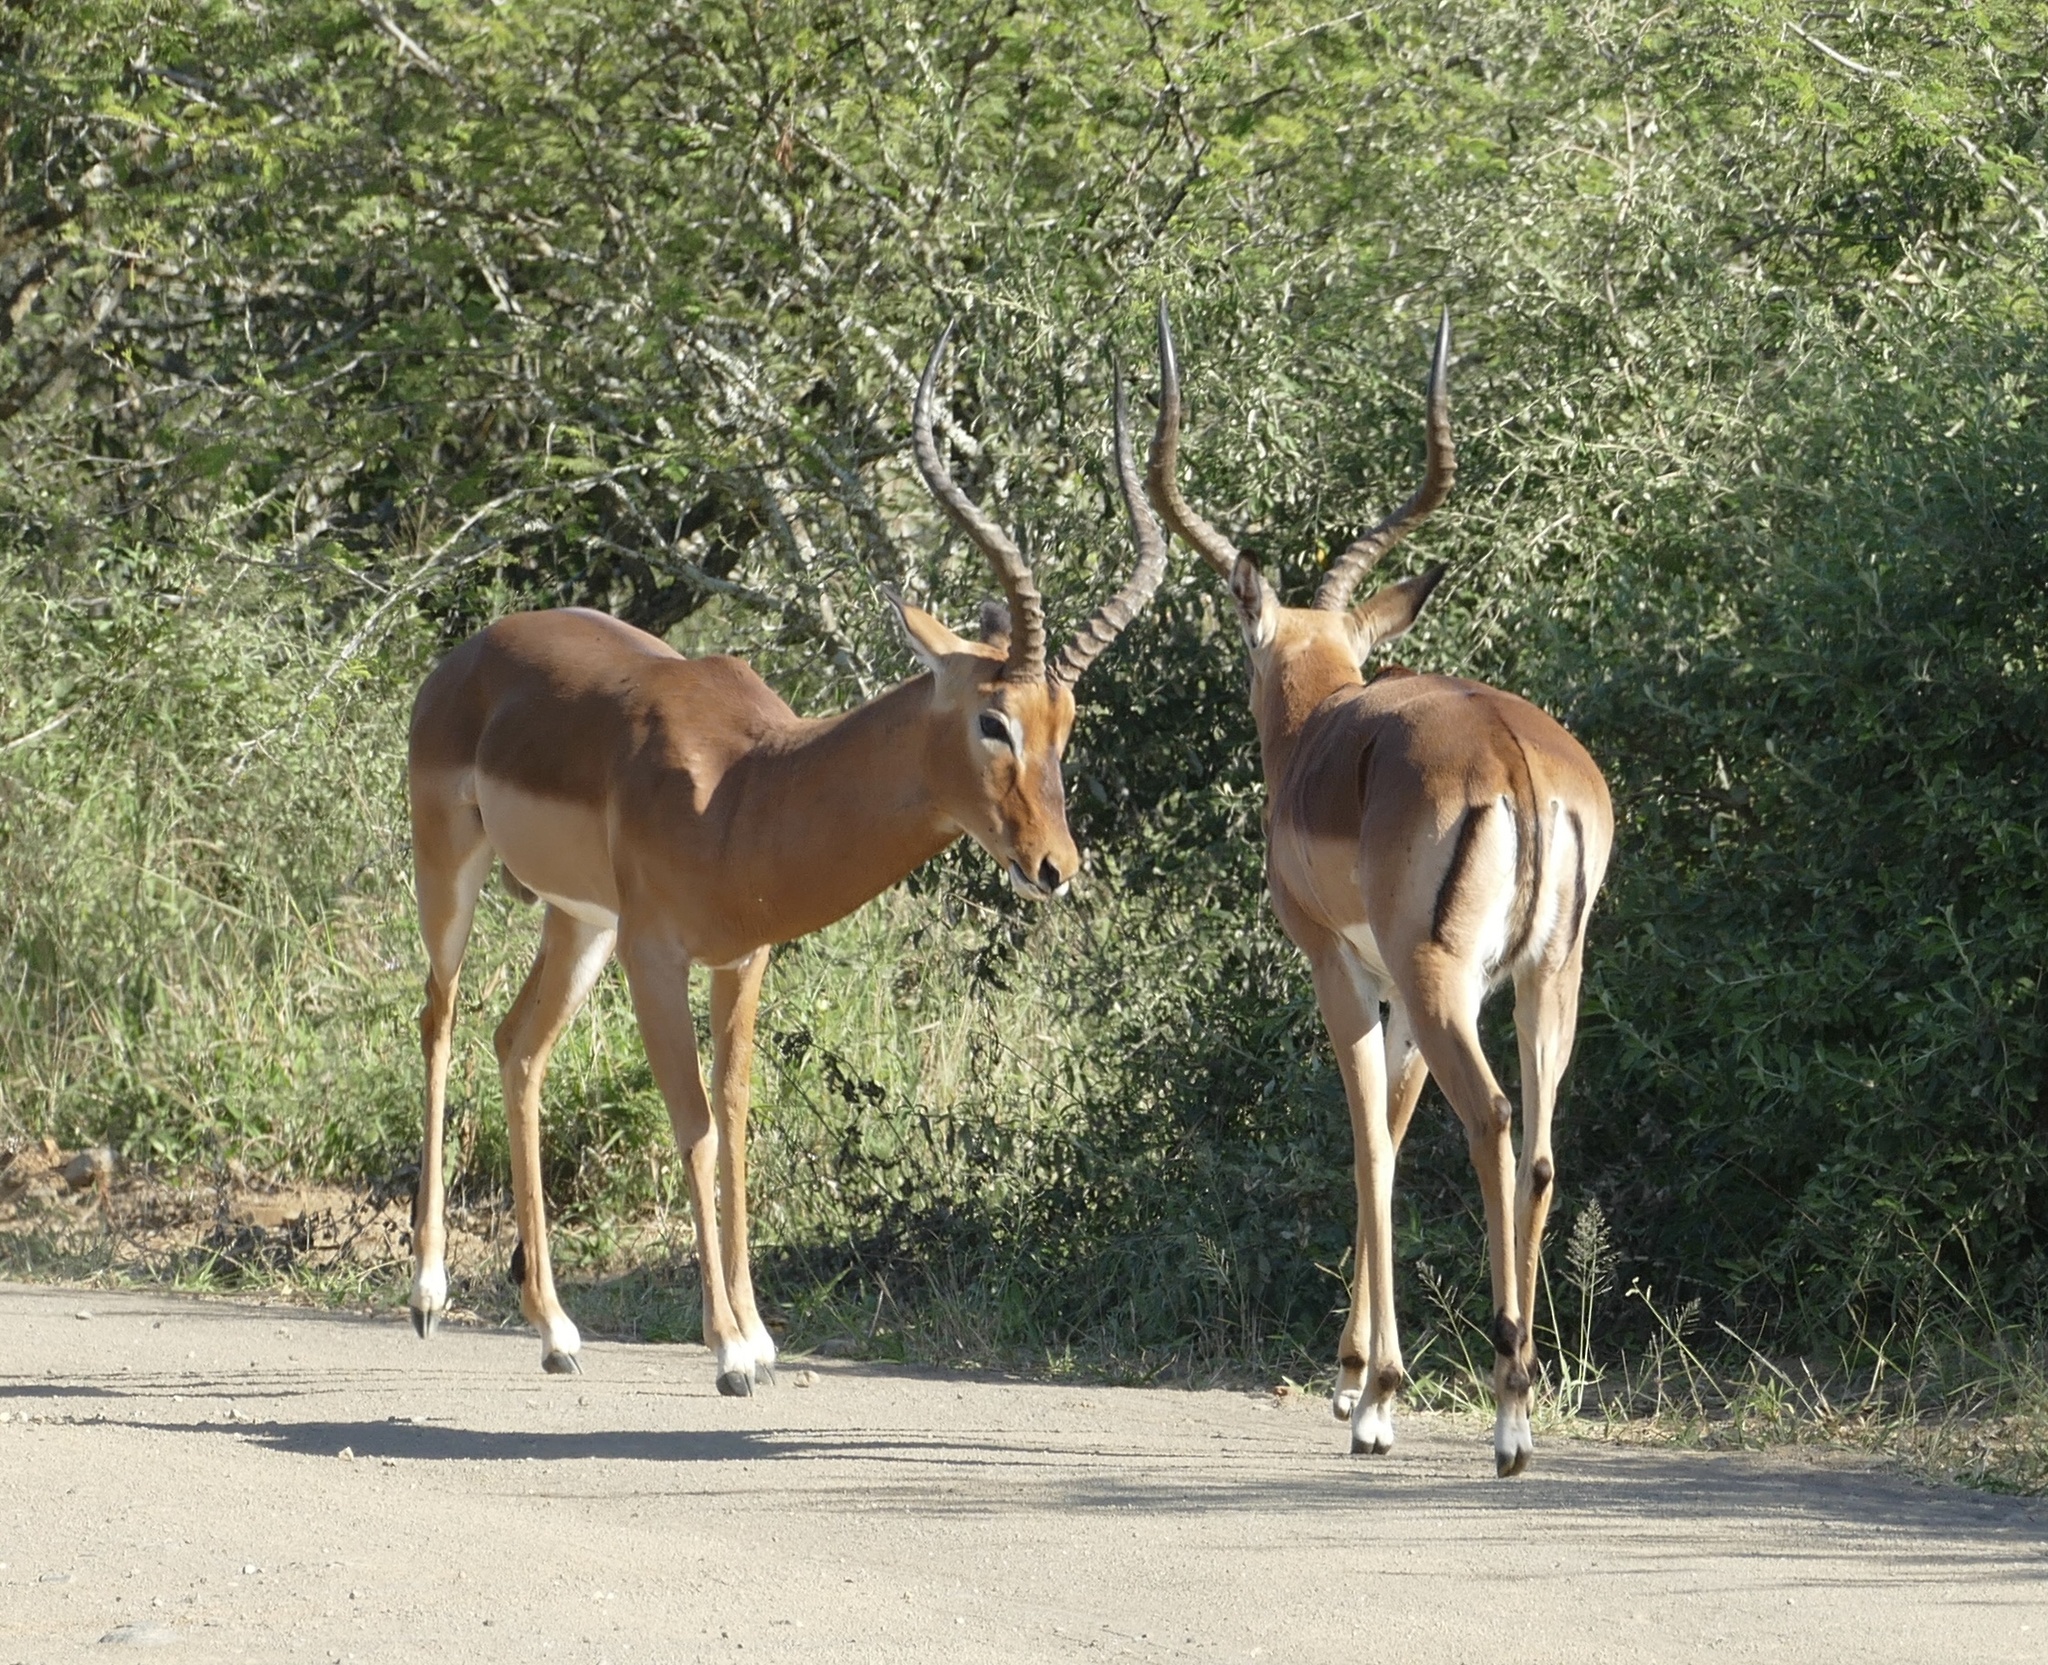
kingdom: Animalia
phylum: Chordata
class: Mammalia
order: Artiodactyla
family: Bovidae
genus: Aepyceros
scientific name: Aepyceros melampus
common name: Impala
